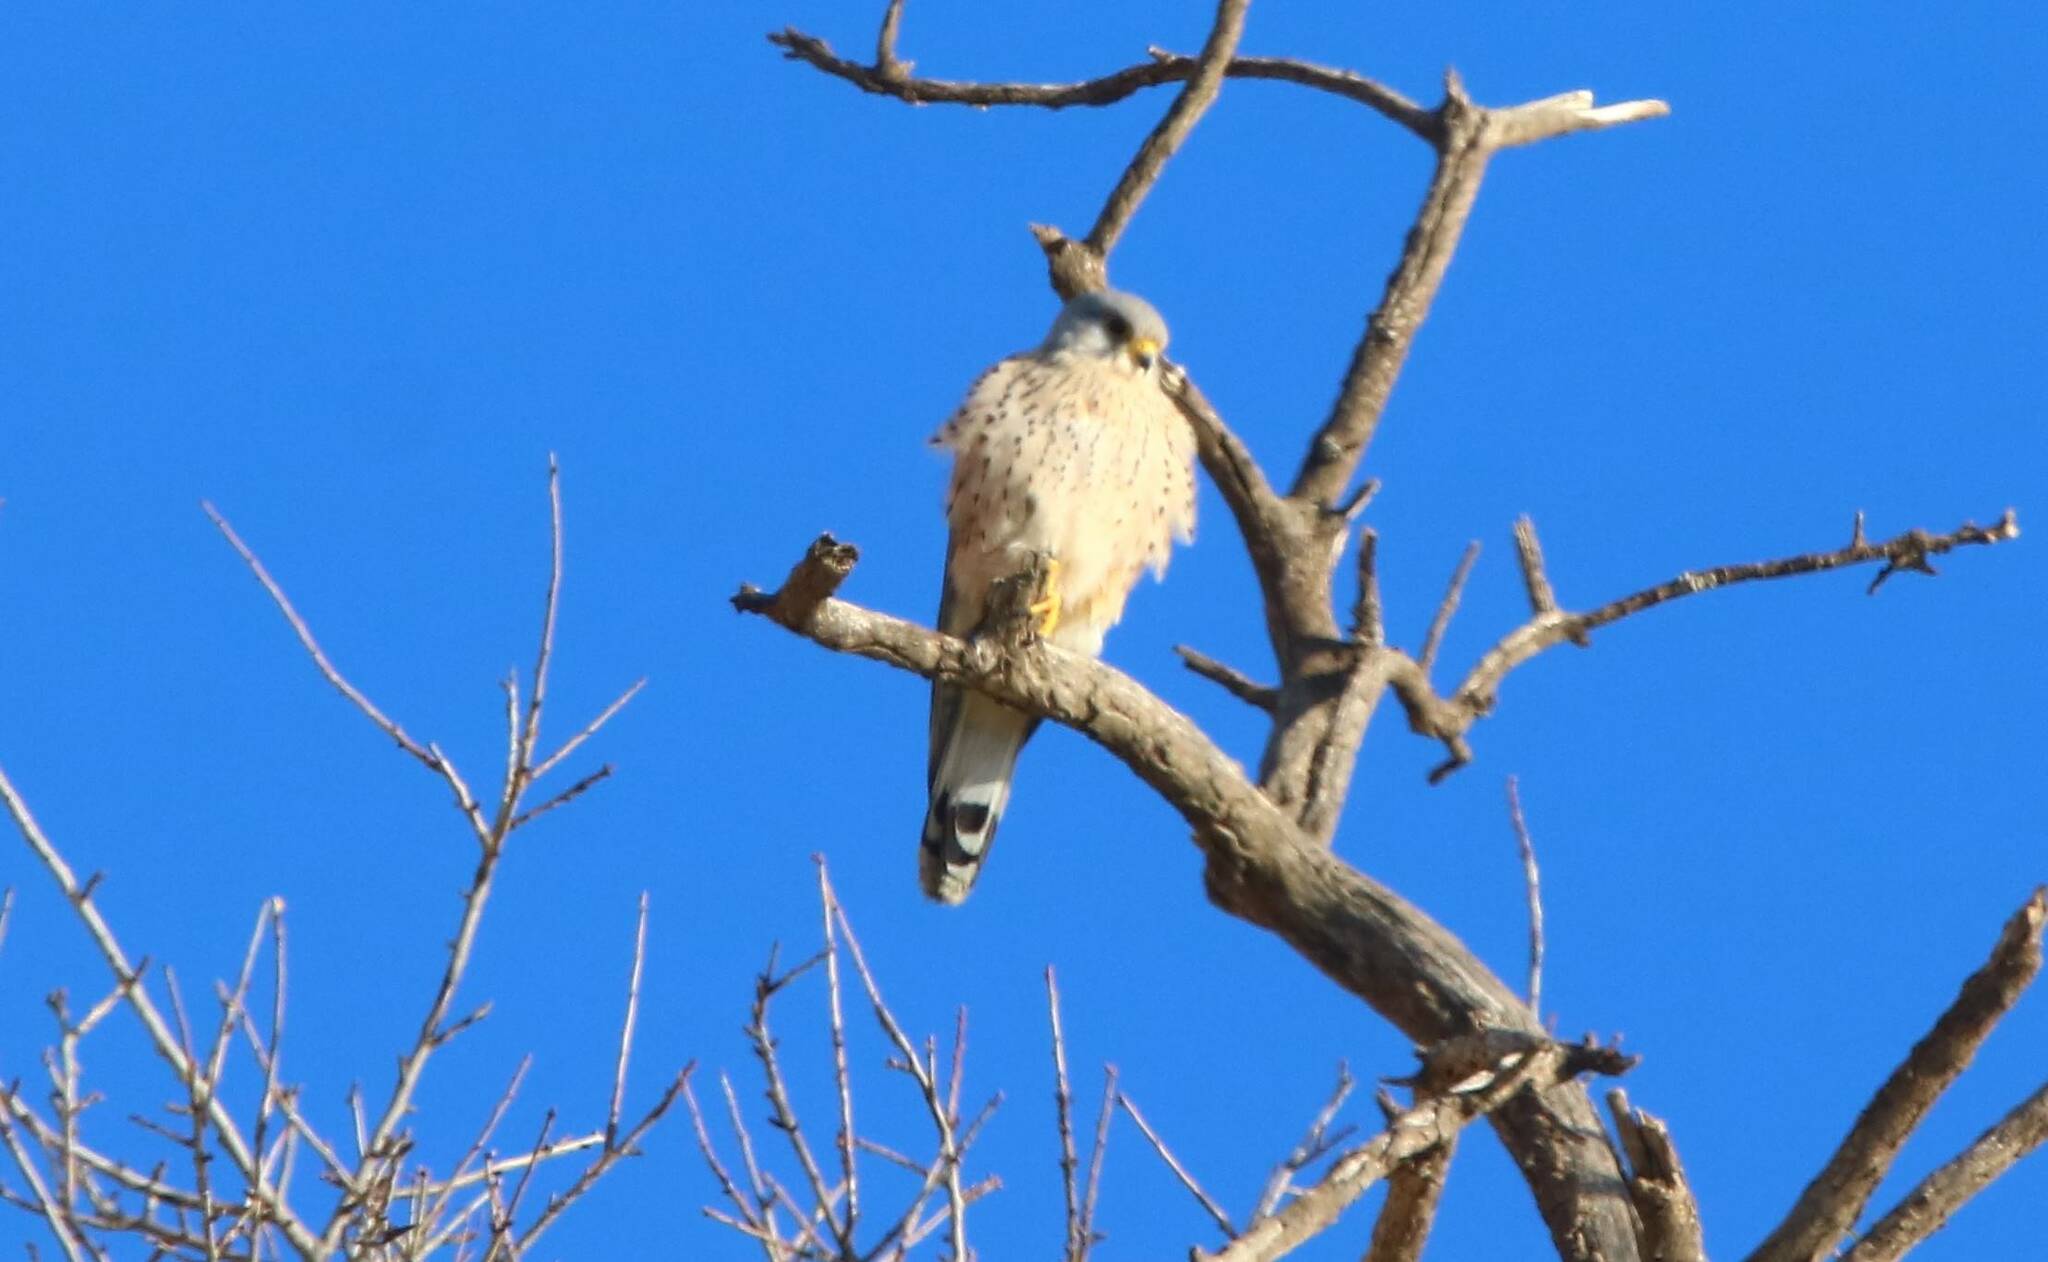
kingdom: Animalia
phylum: Chordata
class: Aves
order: Falconiformes
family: Falconidae
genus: Falco
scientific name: Falco tinnunculus
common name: Common kestrel
